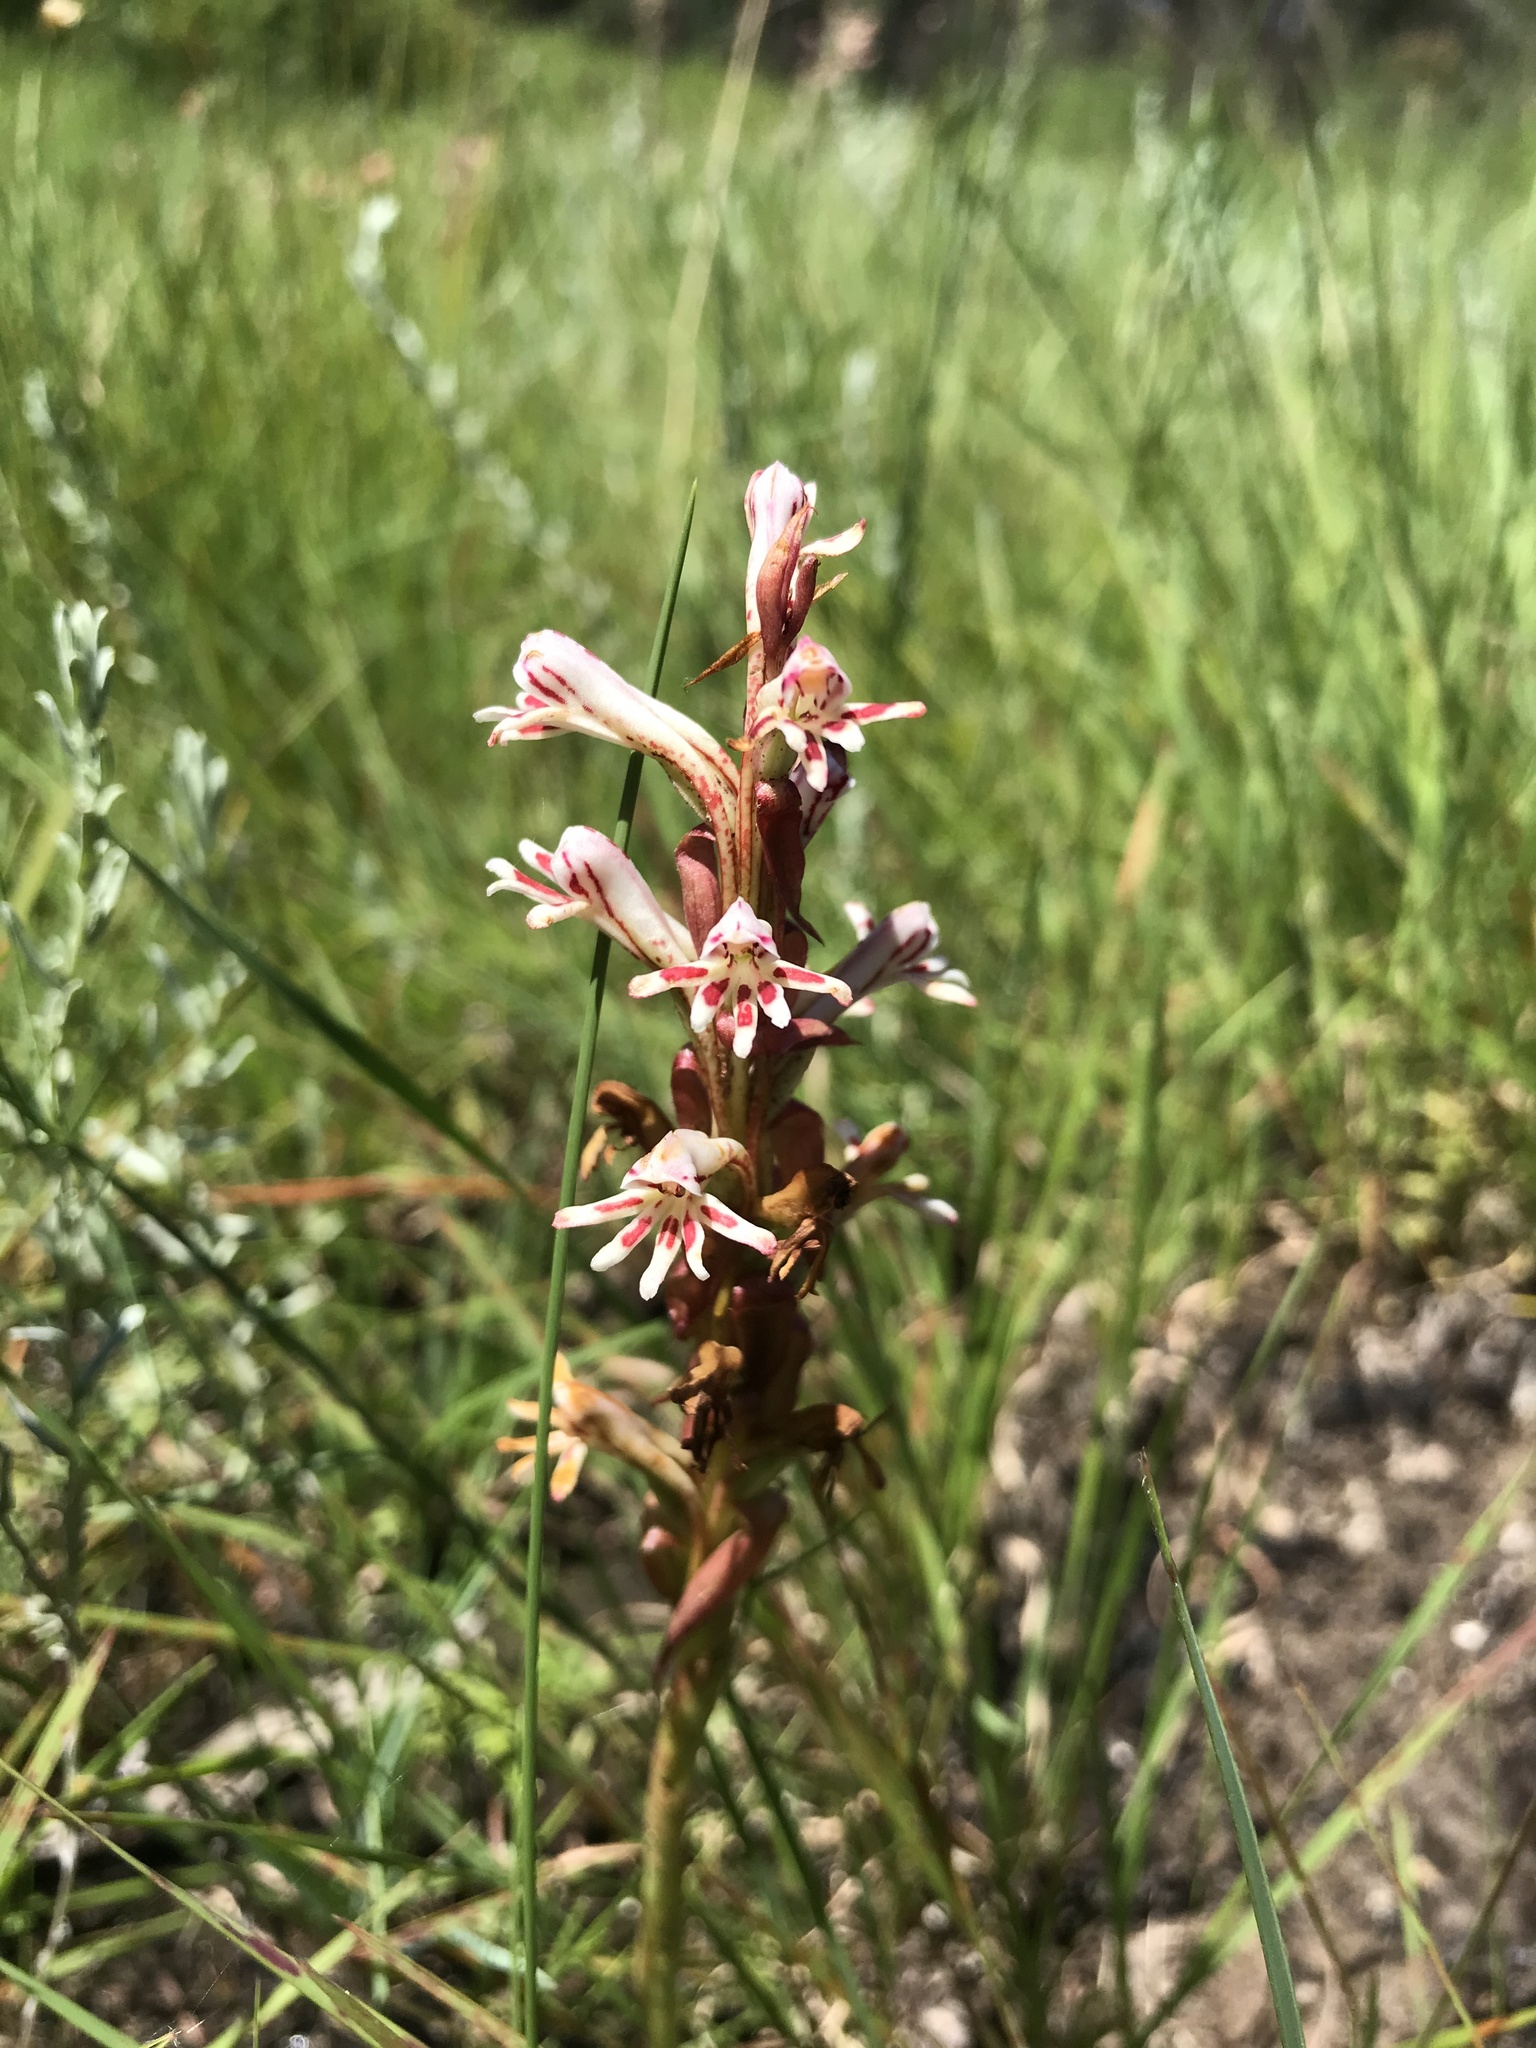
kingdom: Plantae
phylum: Tracheophyta
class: Liliopsida
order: Asparagales
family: Orchidaceae
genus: Satyrium
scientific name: Satyrium cristatum
